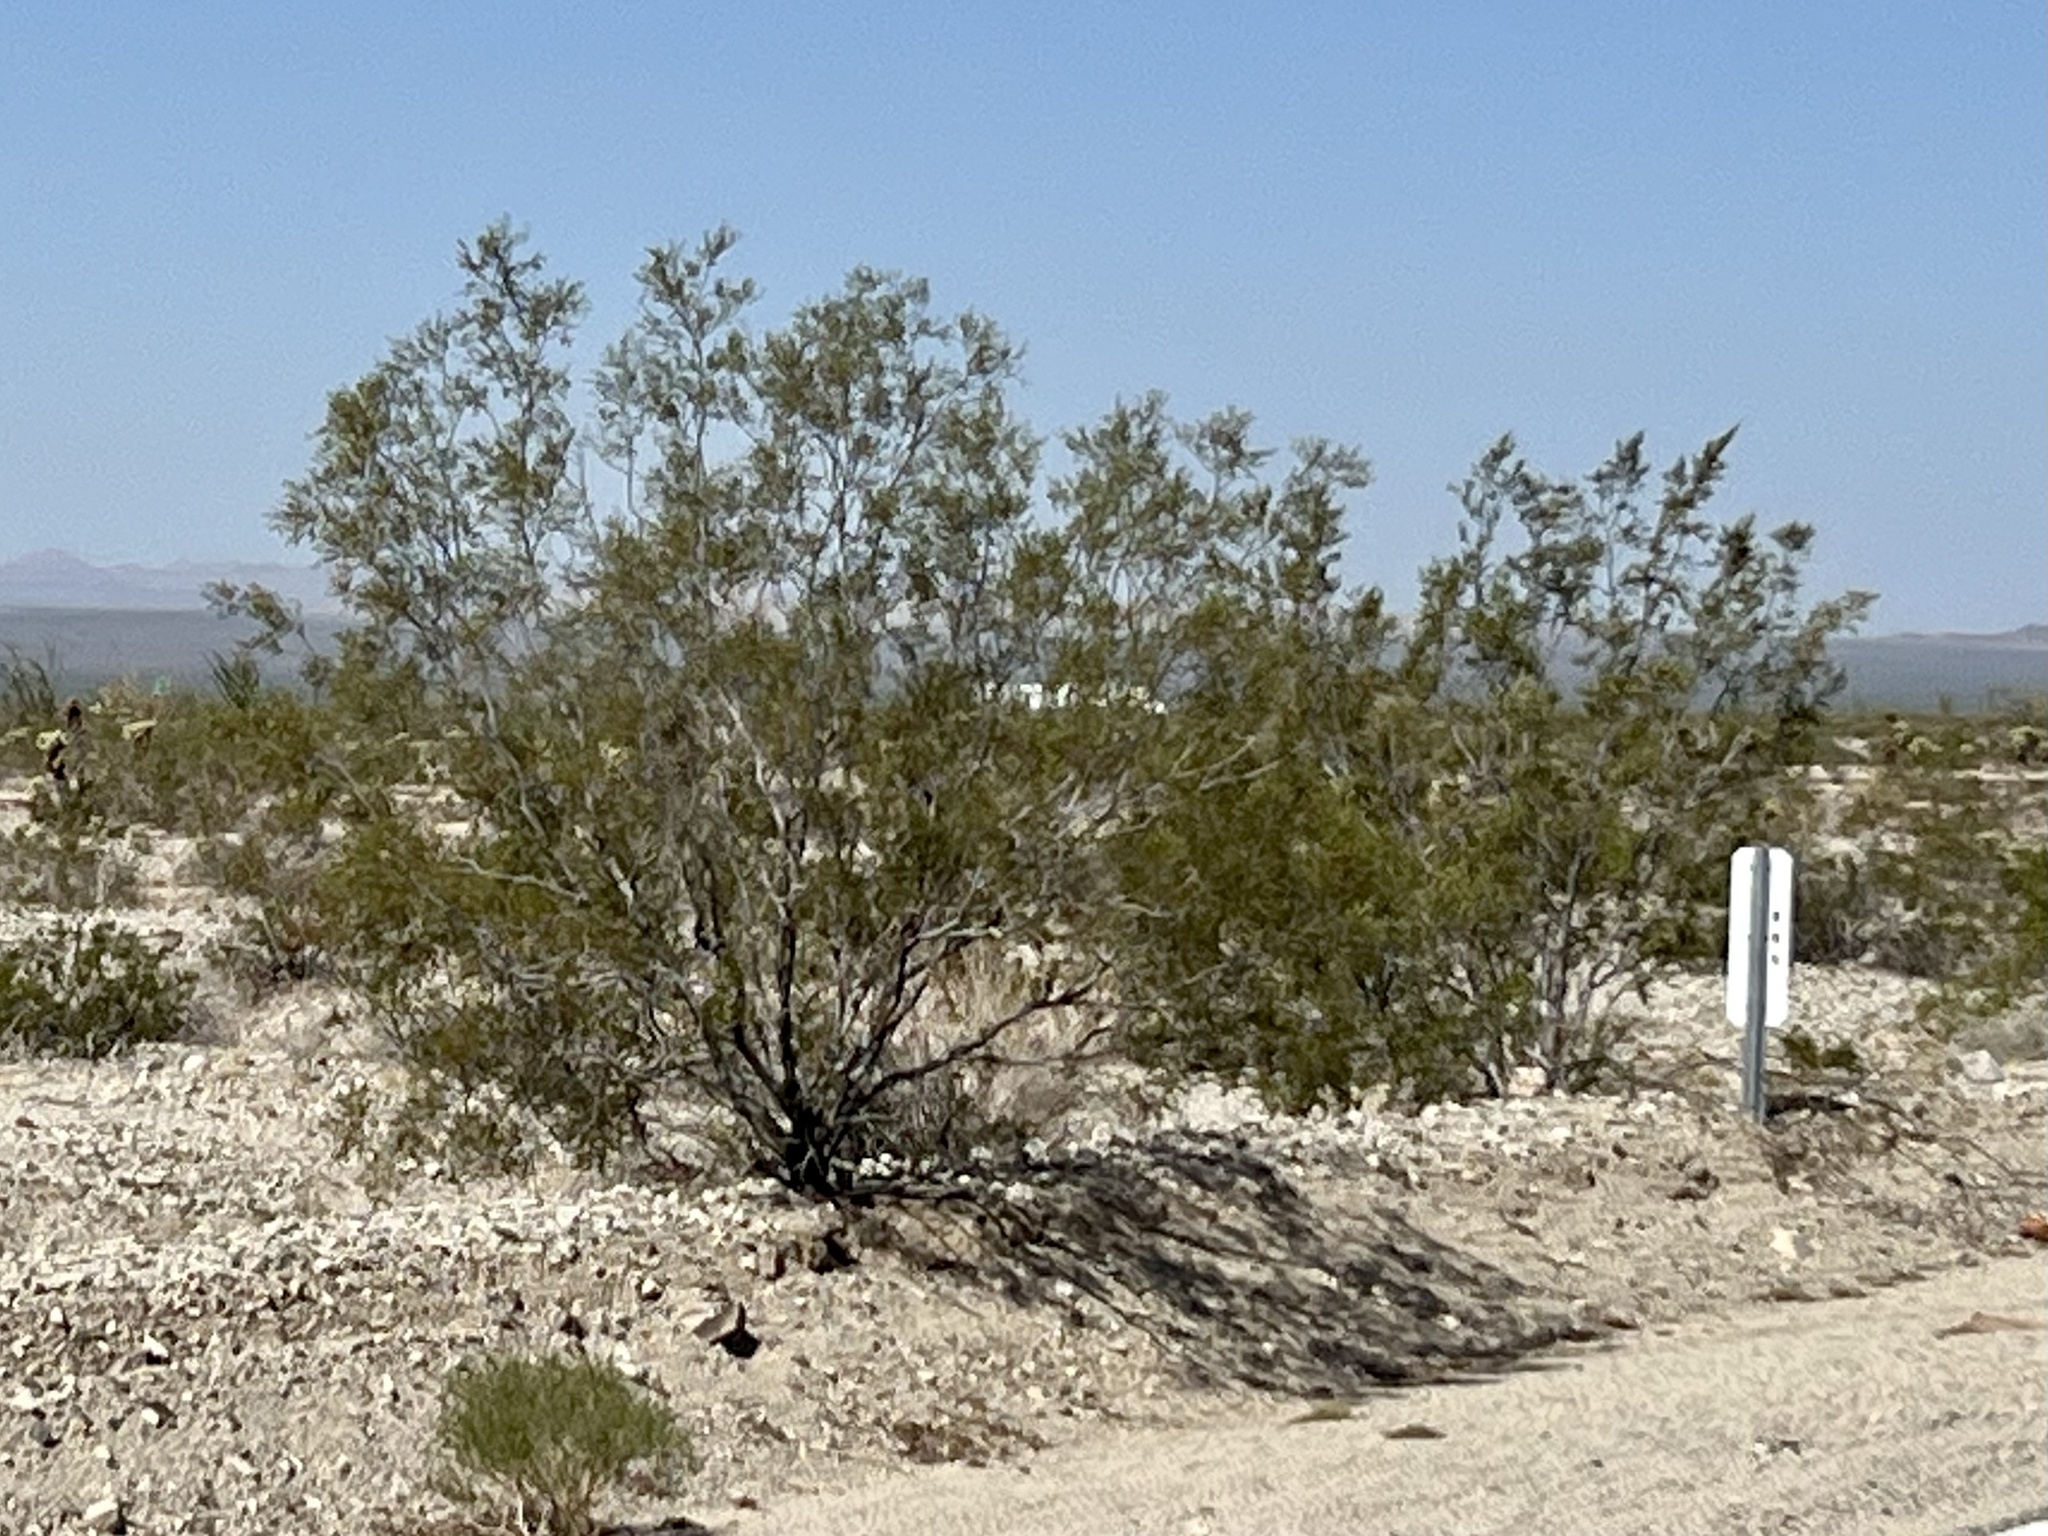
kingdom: Plantae
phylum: Tracheophyta
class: Magnoliopsida
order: Zygophyllales
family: Zygophyllaceae
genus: Larrea
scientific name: Larrea tridentata
